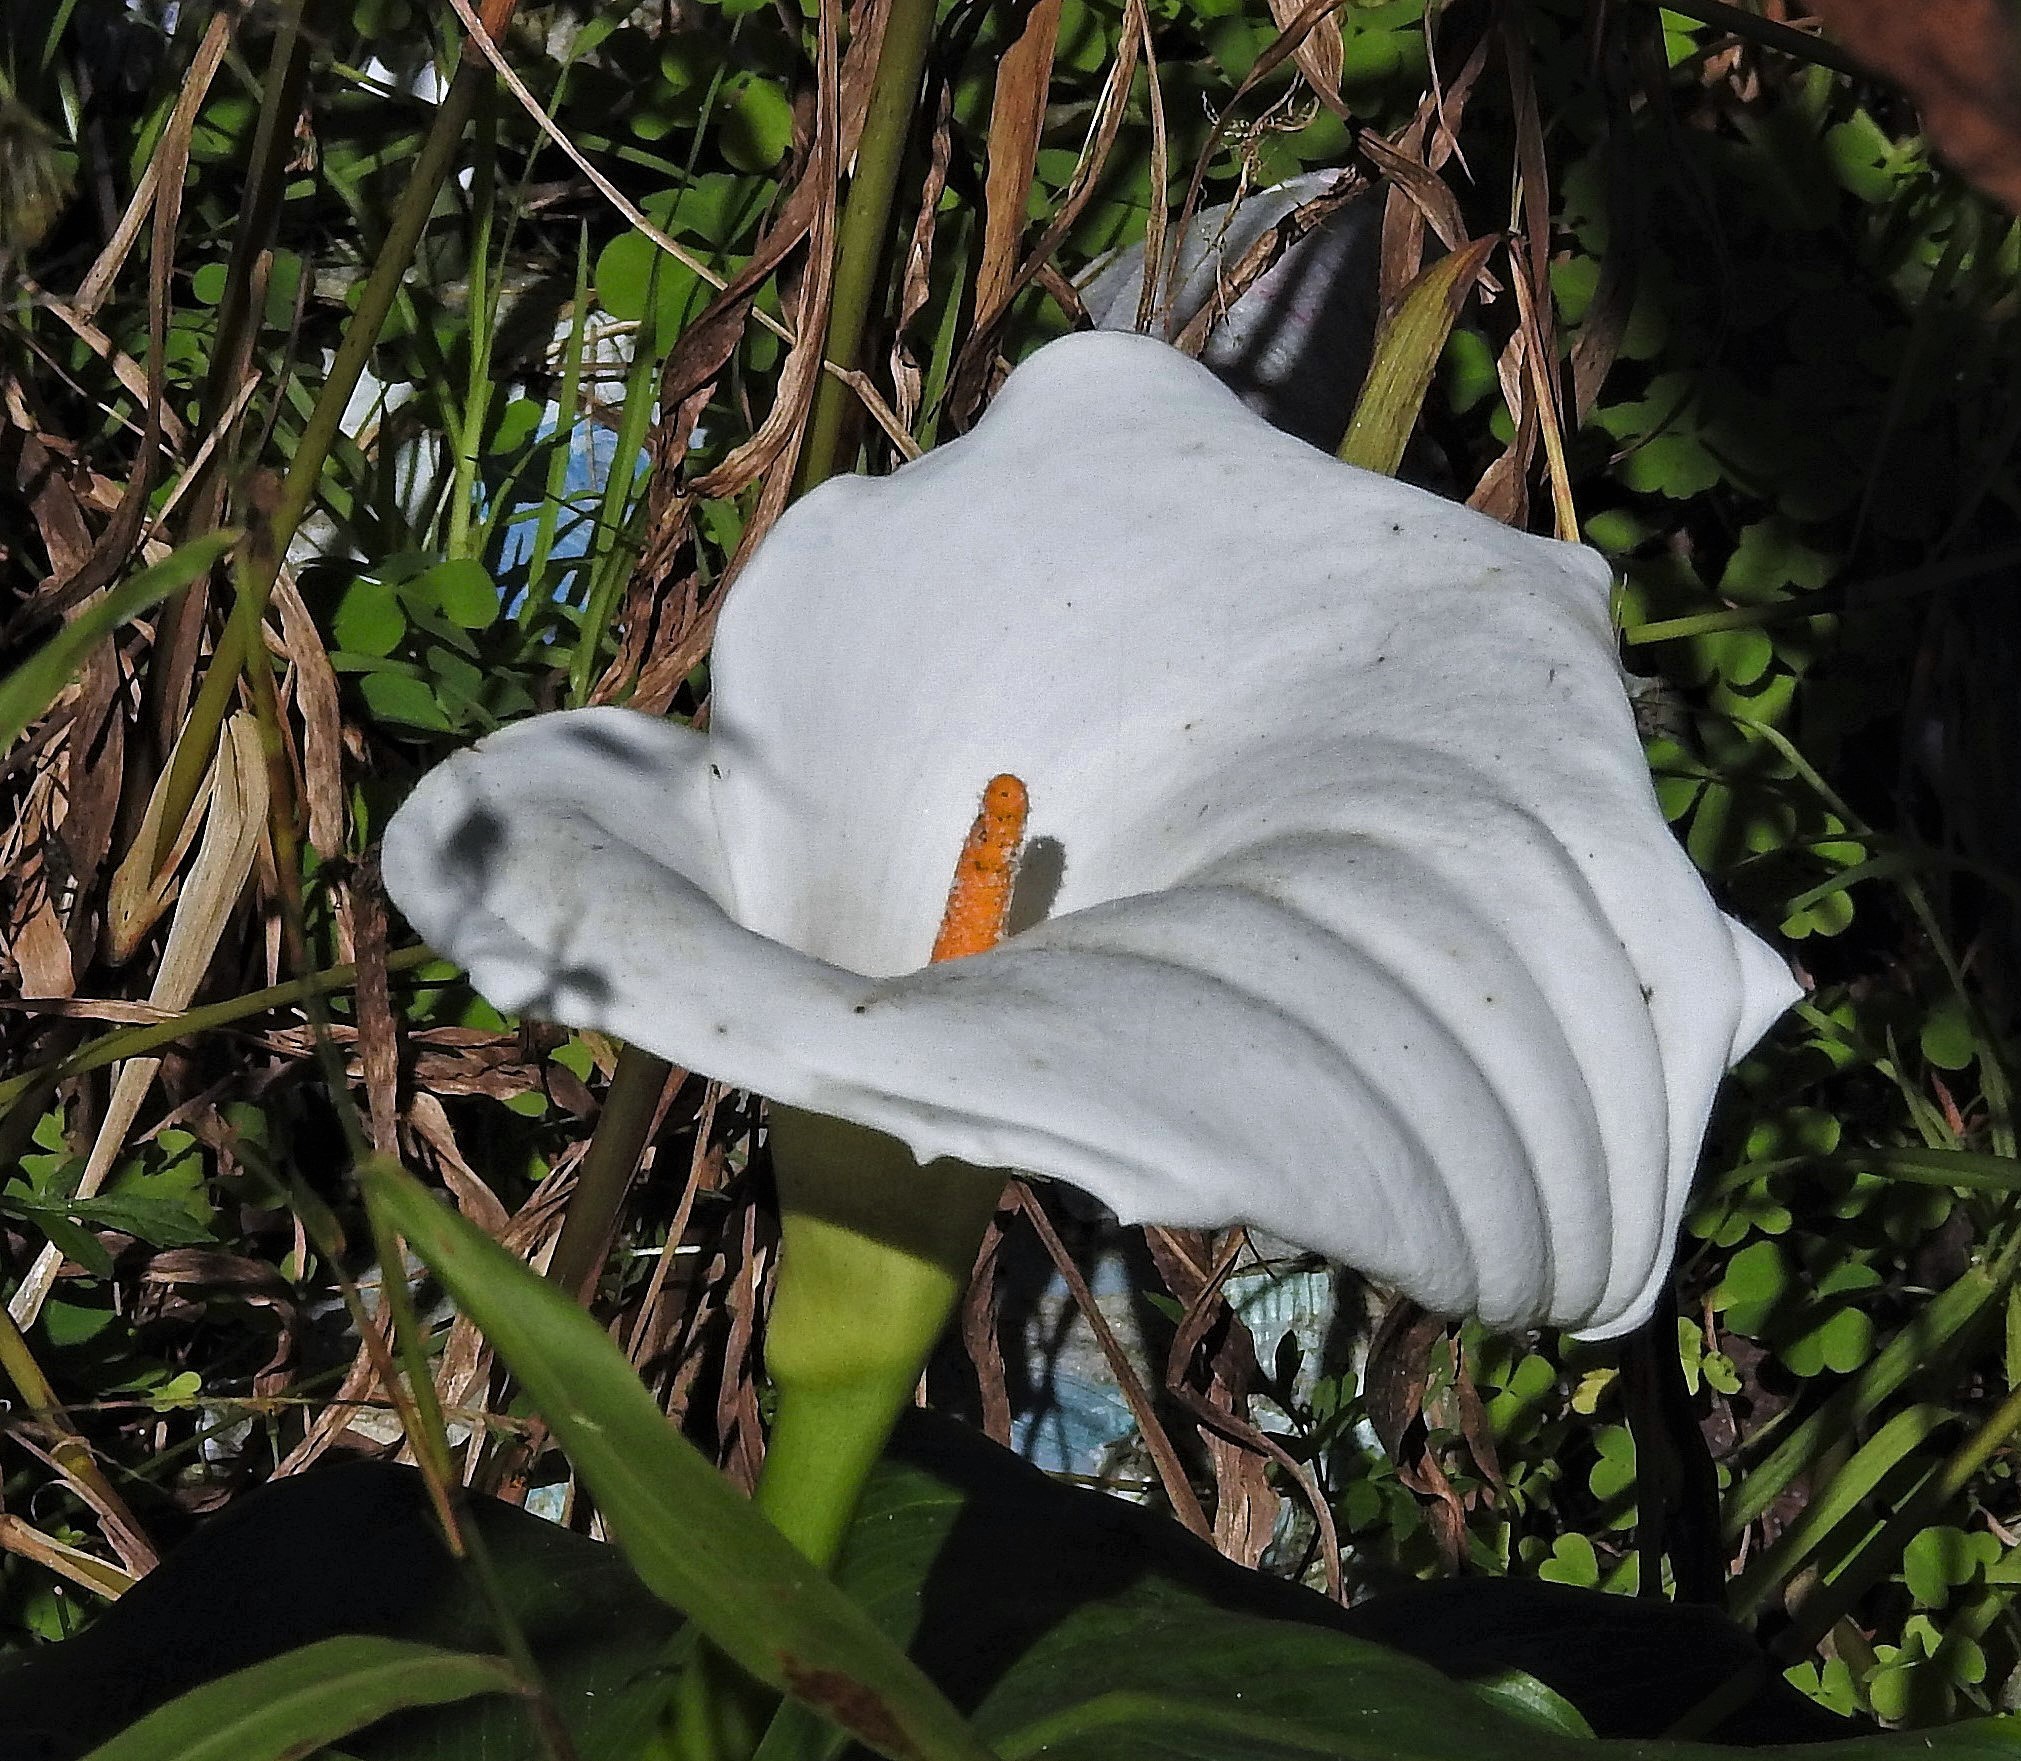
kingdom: Plantae
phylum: Tracheophyta
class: Liliopsida
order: Alismatales
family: Araceae
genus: Zantedeschia
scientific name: Zantedeschia aethiopica
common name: Altar-lily
